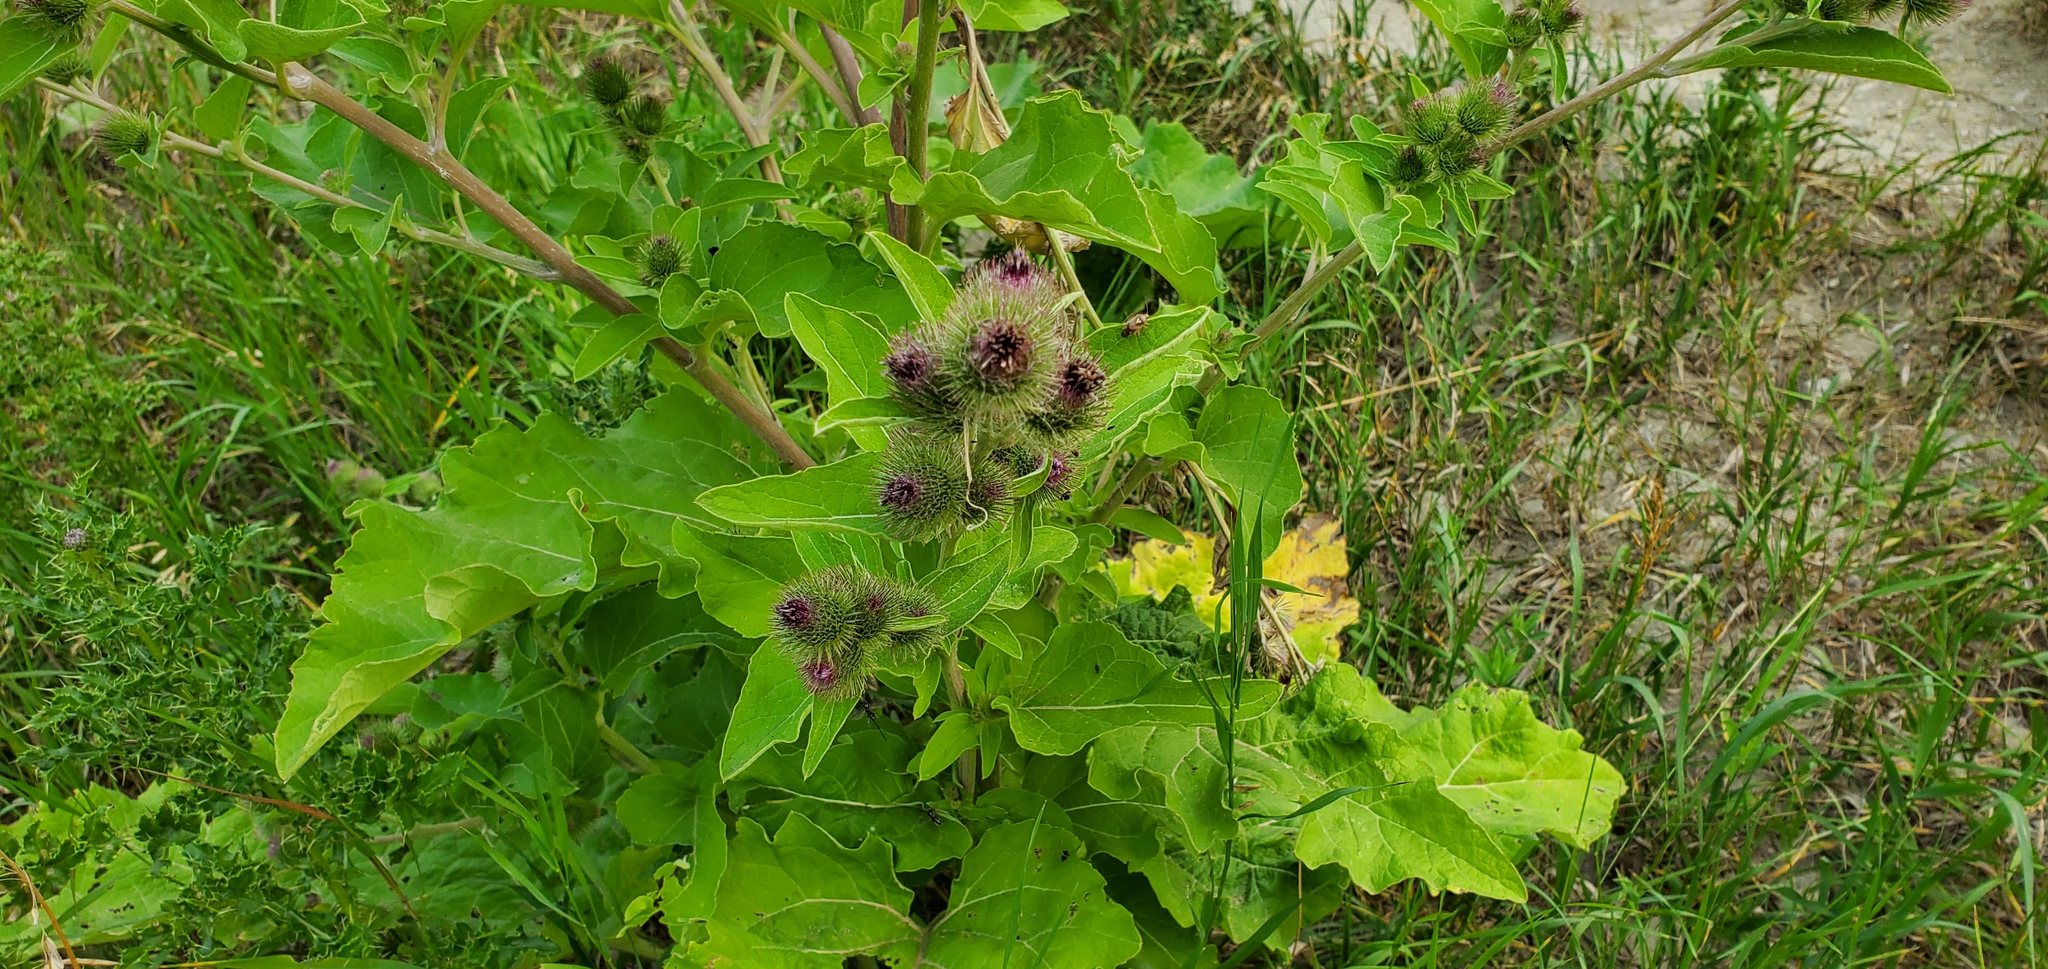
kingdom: Plantae
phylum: Tracheophyta
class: Magnoliopsida
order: Asterales
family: Asteraceae
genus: Arctium
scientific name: Arctium minus
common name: Lesser burdock
